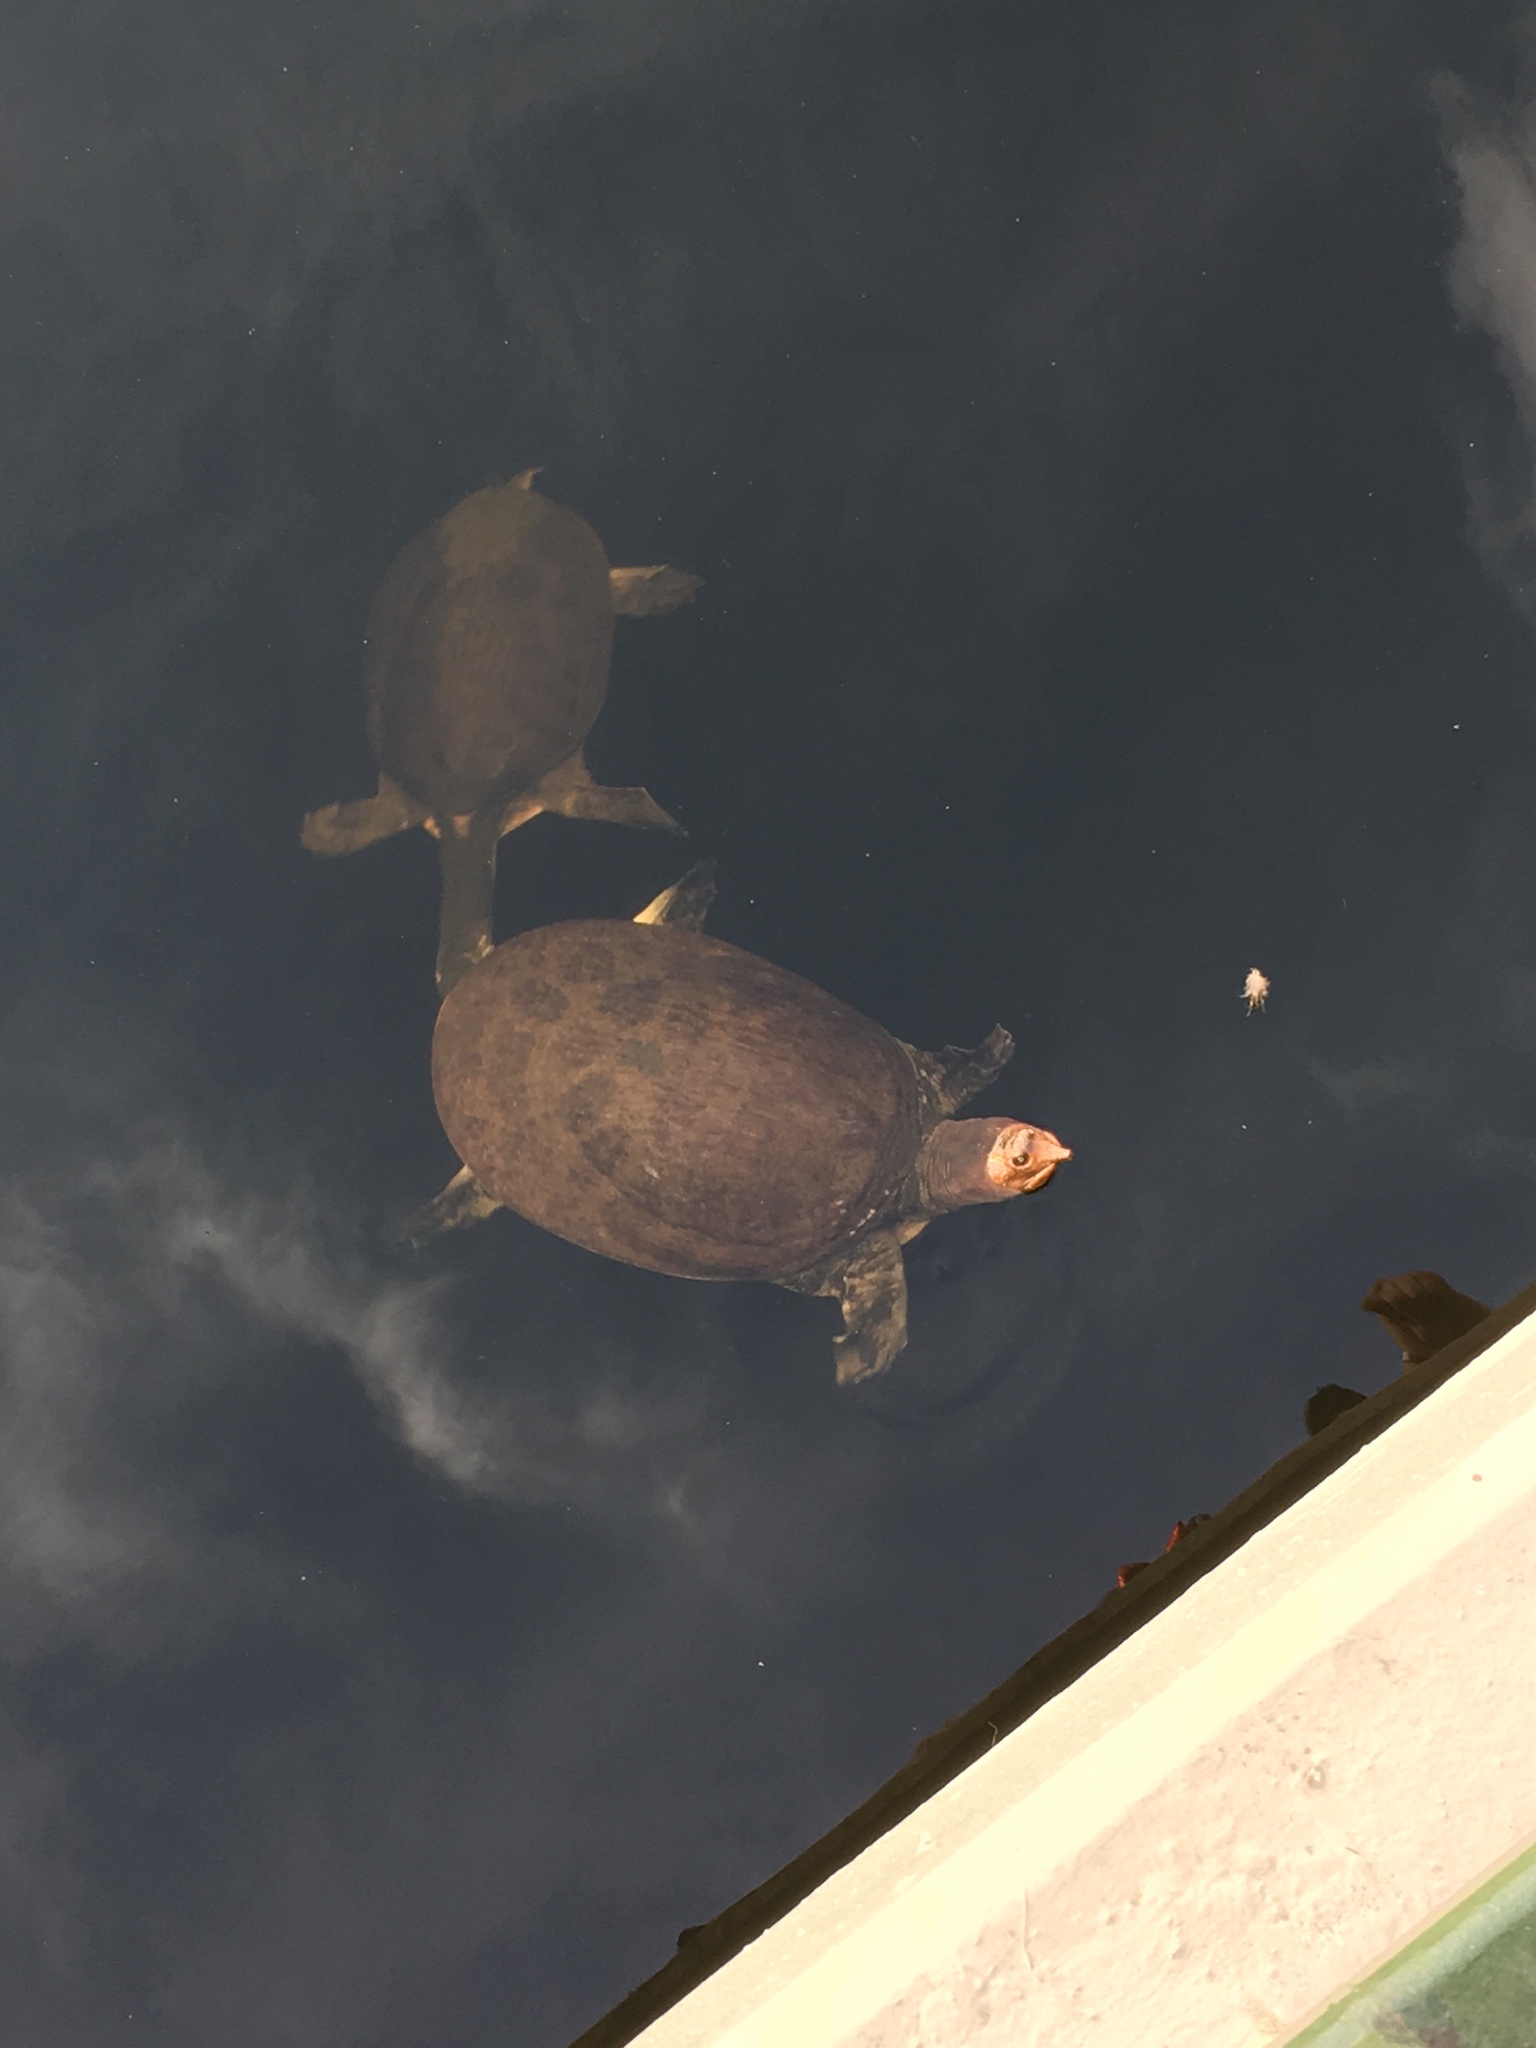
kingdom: Animalia
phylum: Chordata
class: Testudines
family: Trionychidae
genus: Apalone
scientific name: Apalone ferox
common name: Florida softshell turtle
